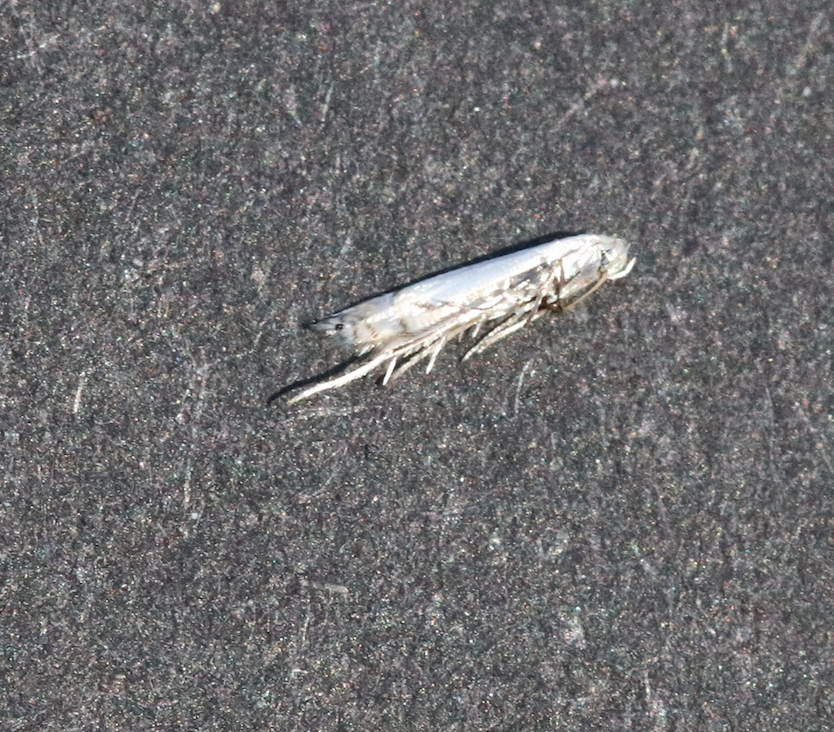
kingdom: Animalia
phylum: Arthropoda
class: Insecta
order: Lepidoptera
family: Gracillariidae
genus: Phyllocnistis
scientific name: Phyllocnistis populiella
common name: Aspen serpentine leafminer moth
